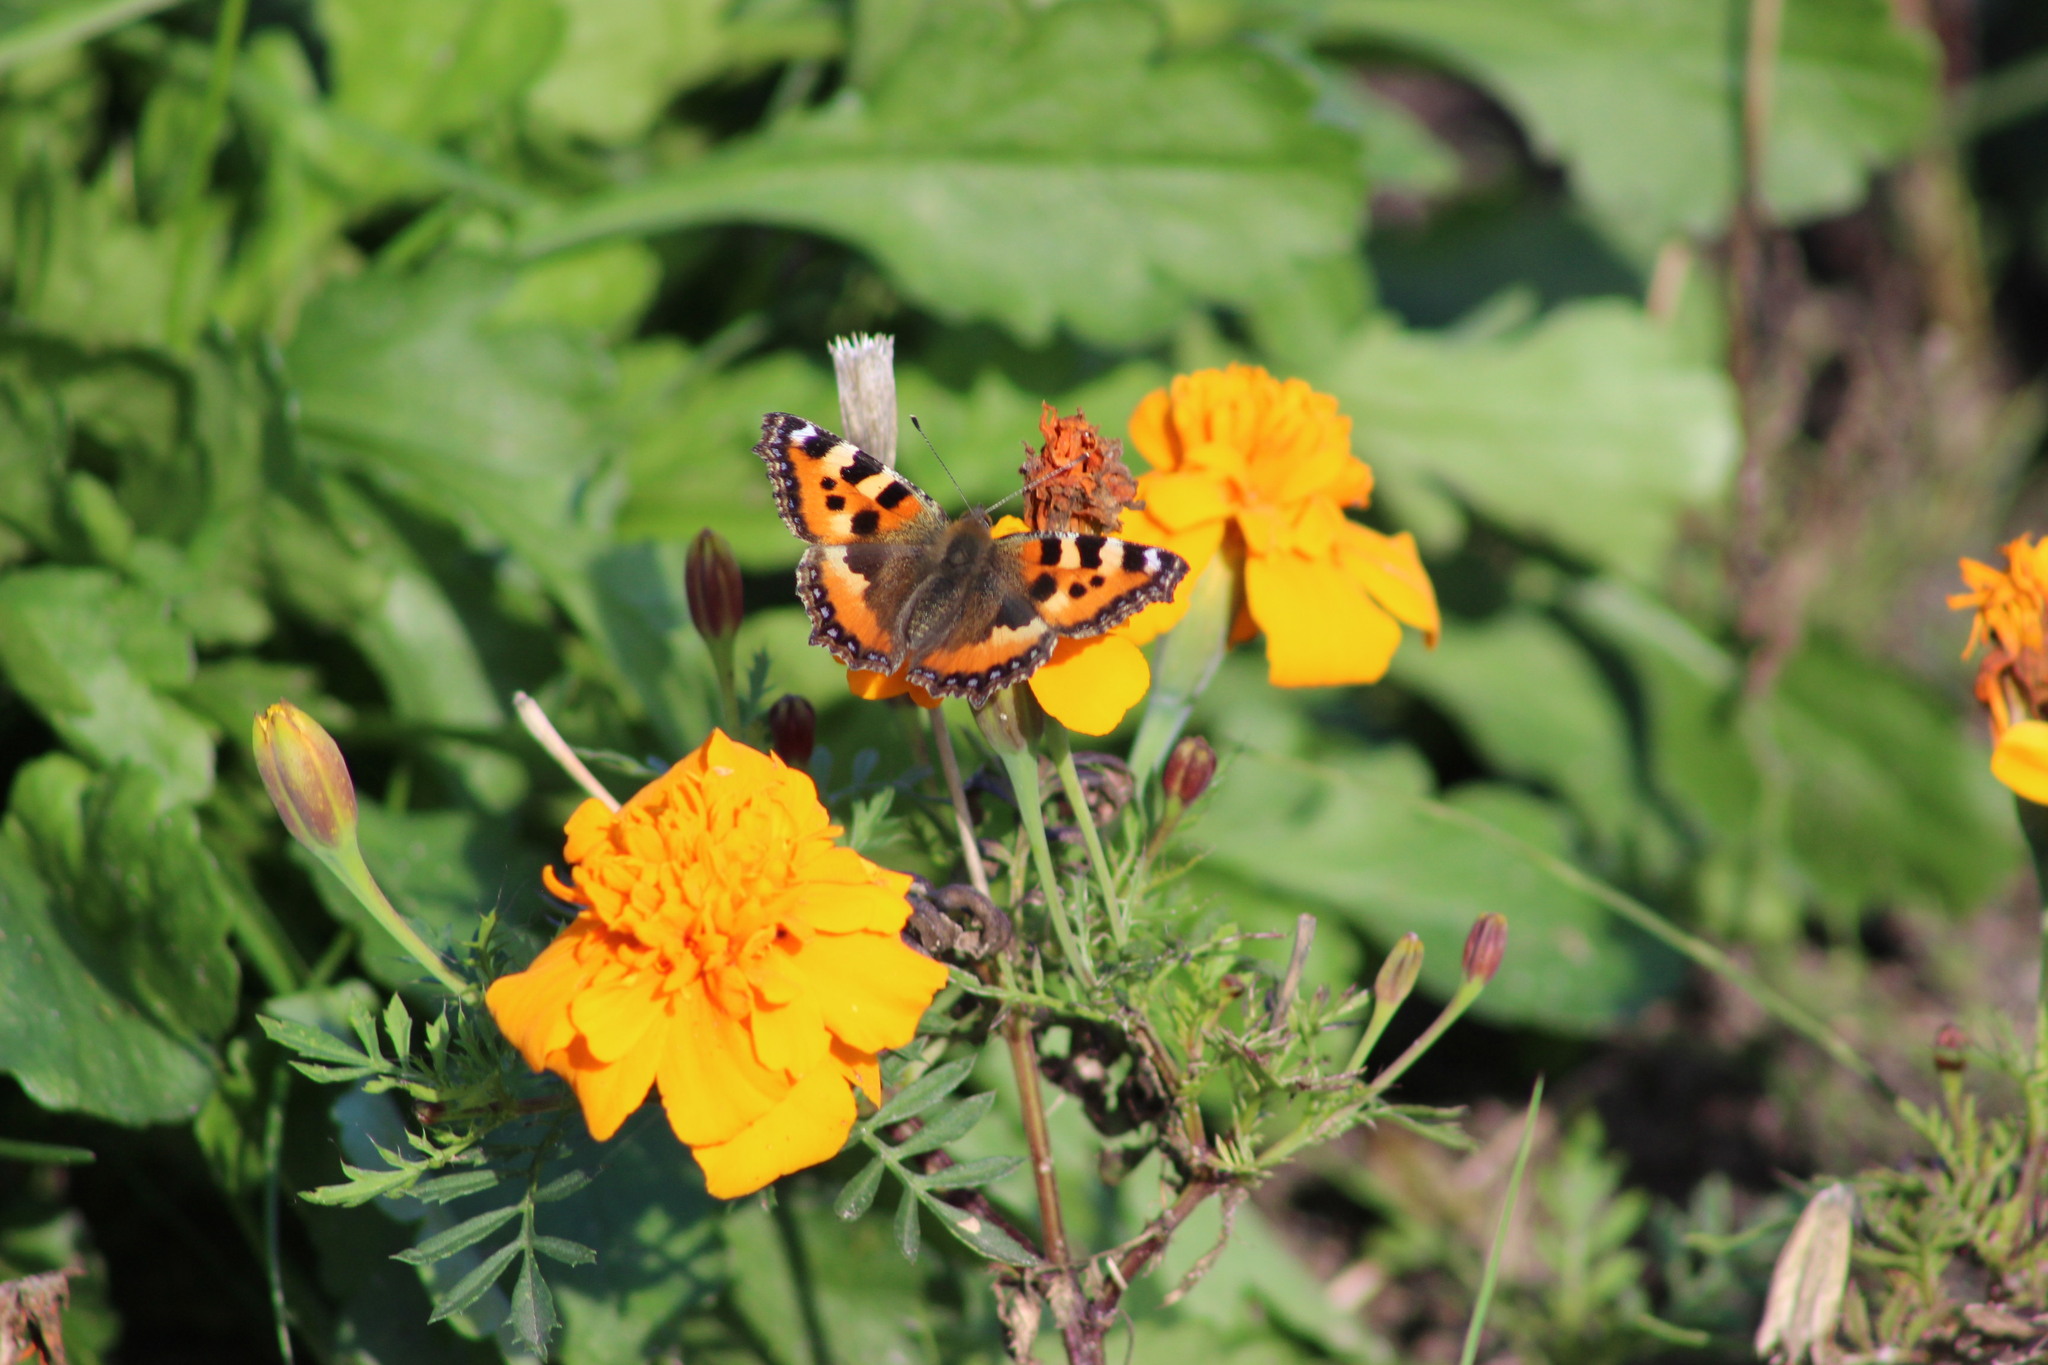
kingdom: Animalia
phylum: Arthropoda
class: Insecta
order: Lepidoptera
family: Nymphalidae
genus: Aglais
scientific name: Aglais urticae
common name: Small tortoiseshell
